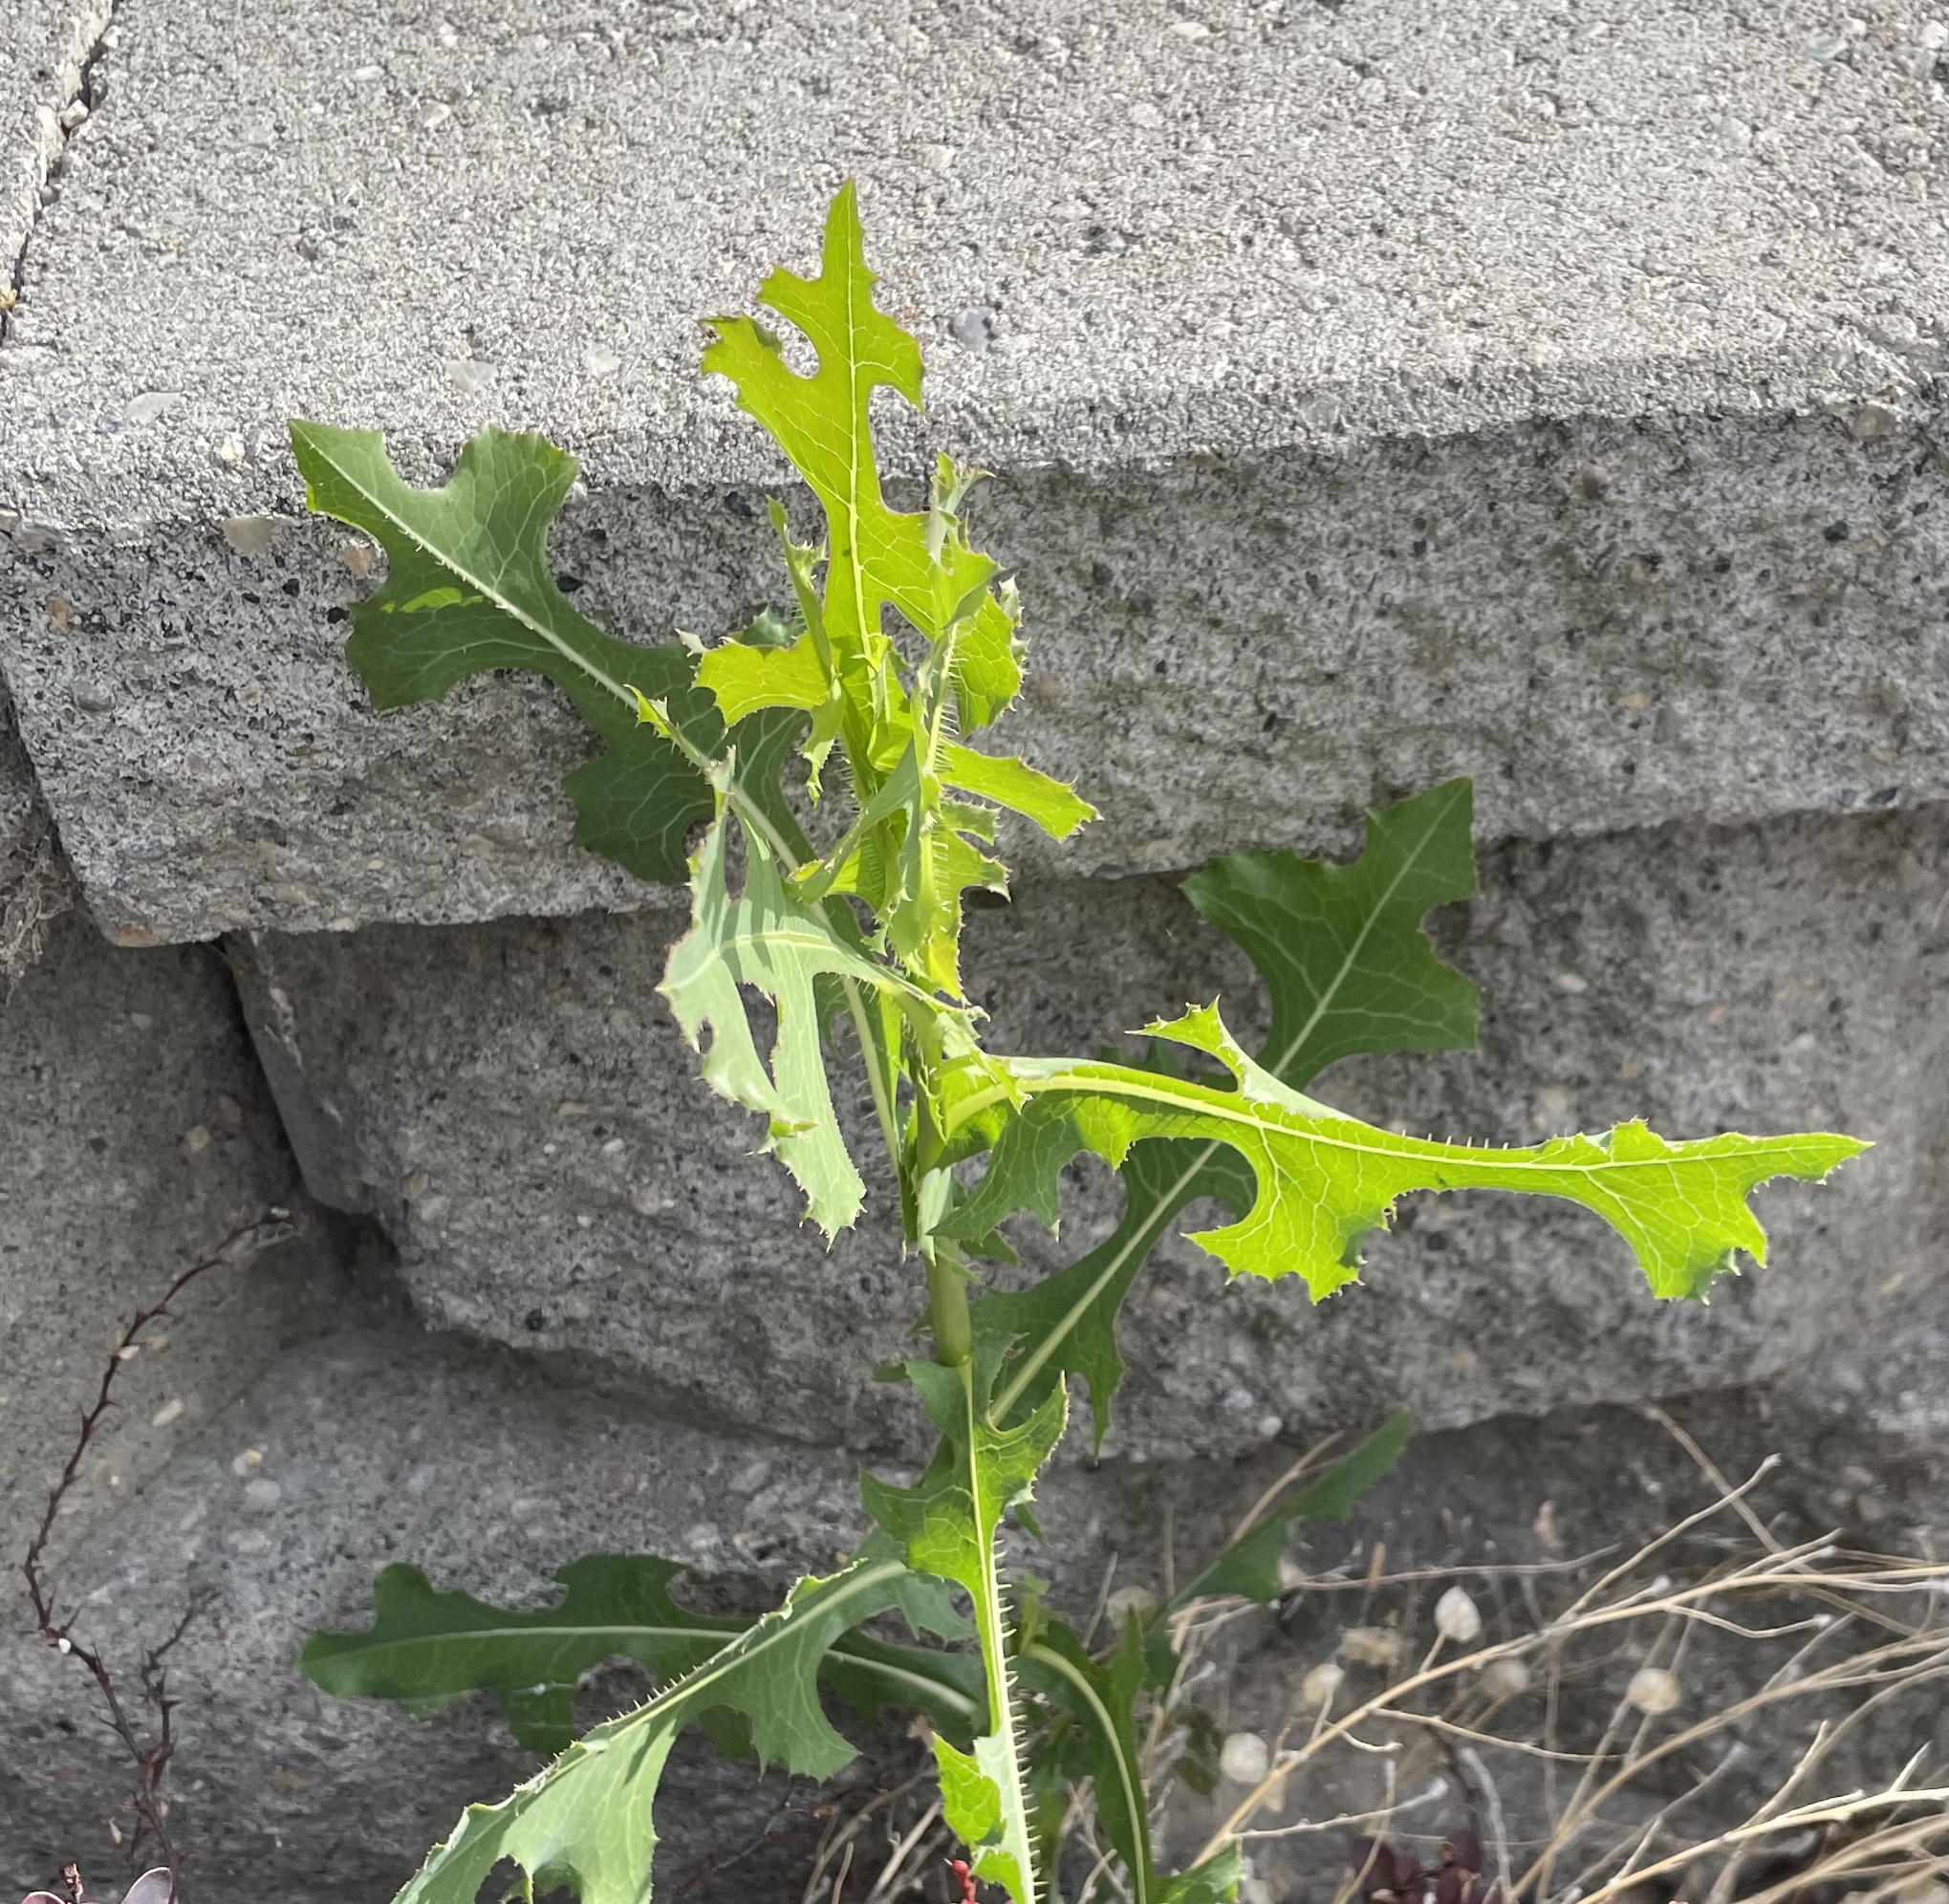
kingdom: Plantae
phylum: Tracheophyta
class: Magnoliopsida
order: Asterales
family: Asteraceae
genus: Lactuca
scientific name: Lactuca serriola
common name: Prickly lettuce
